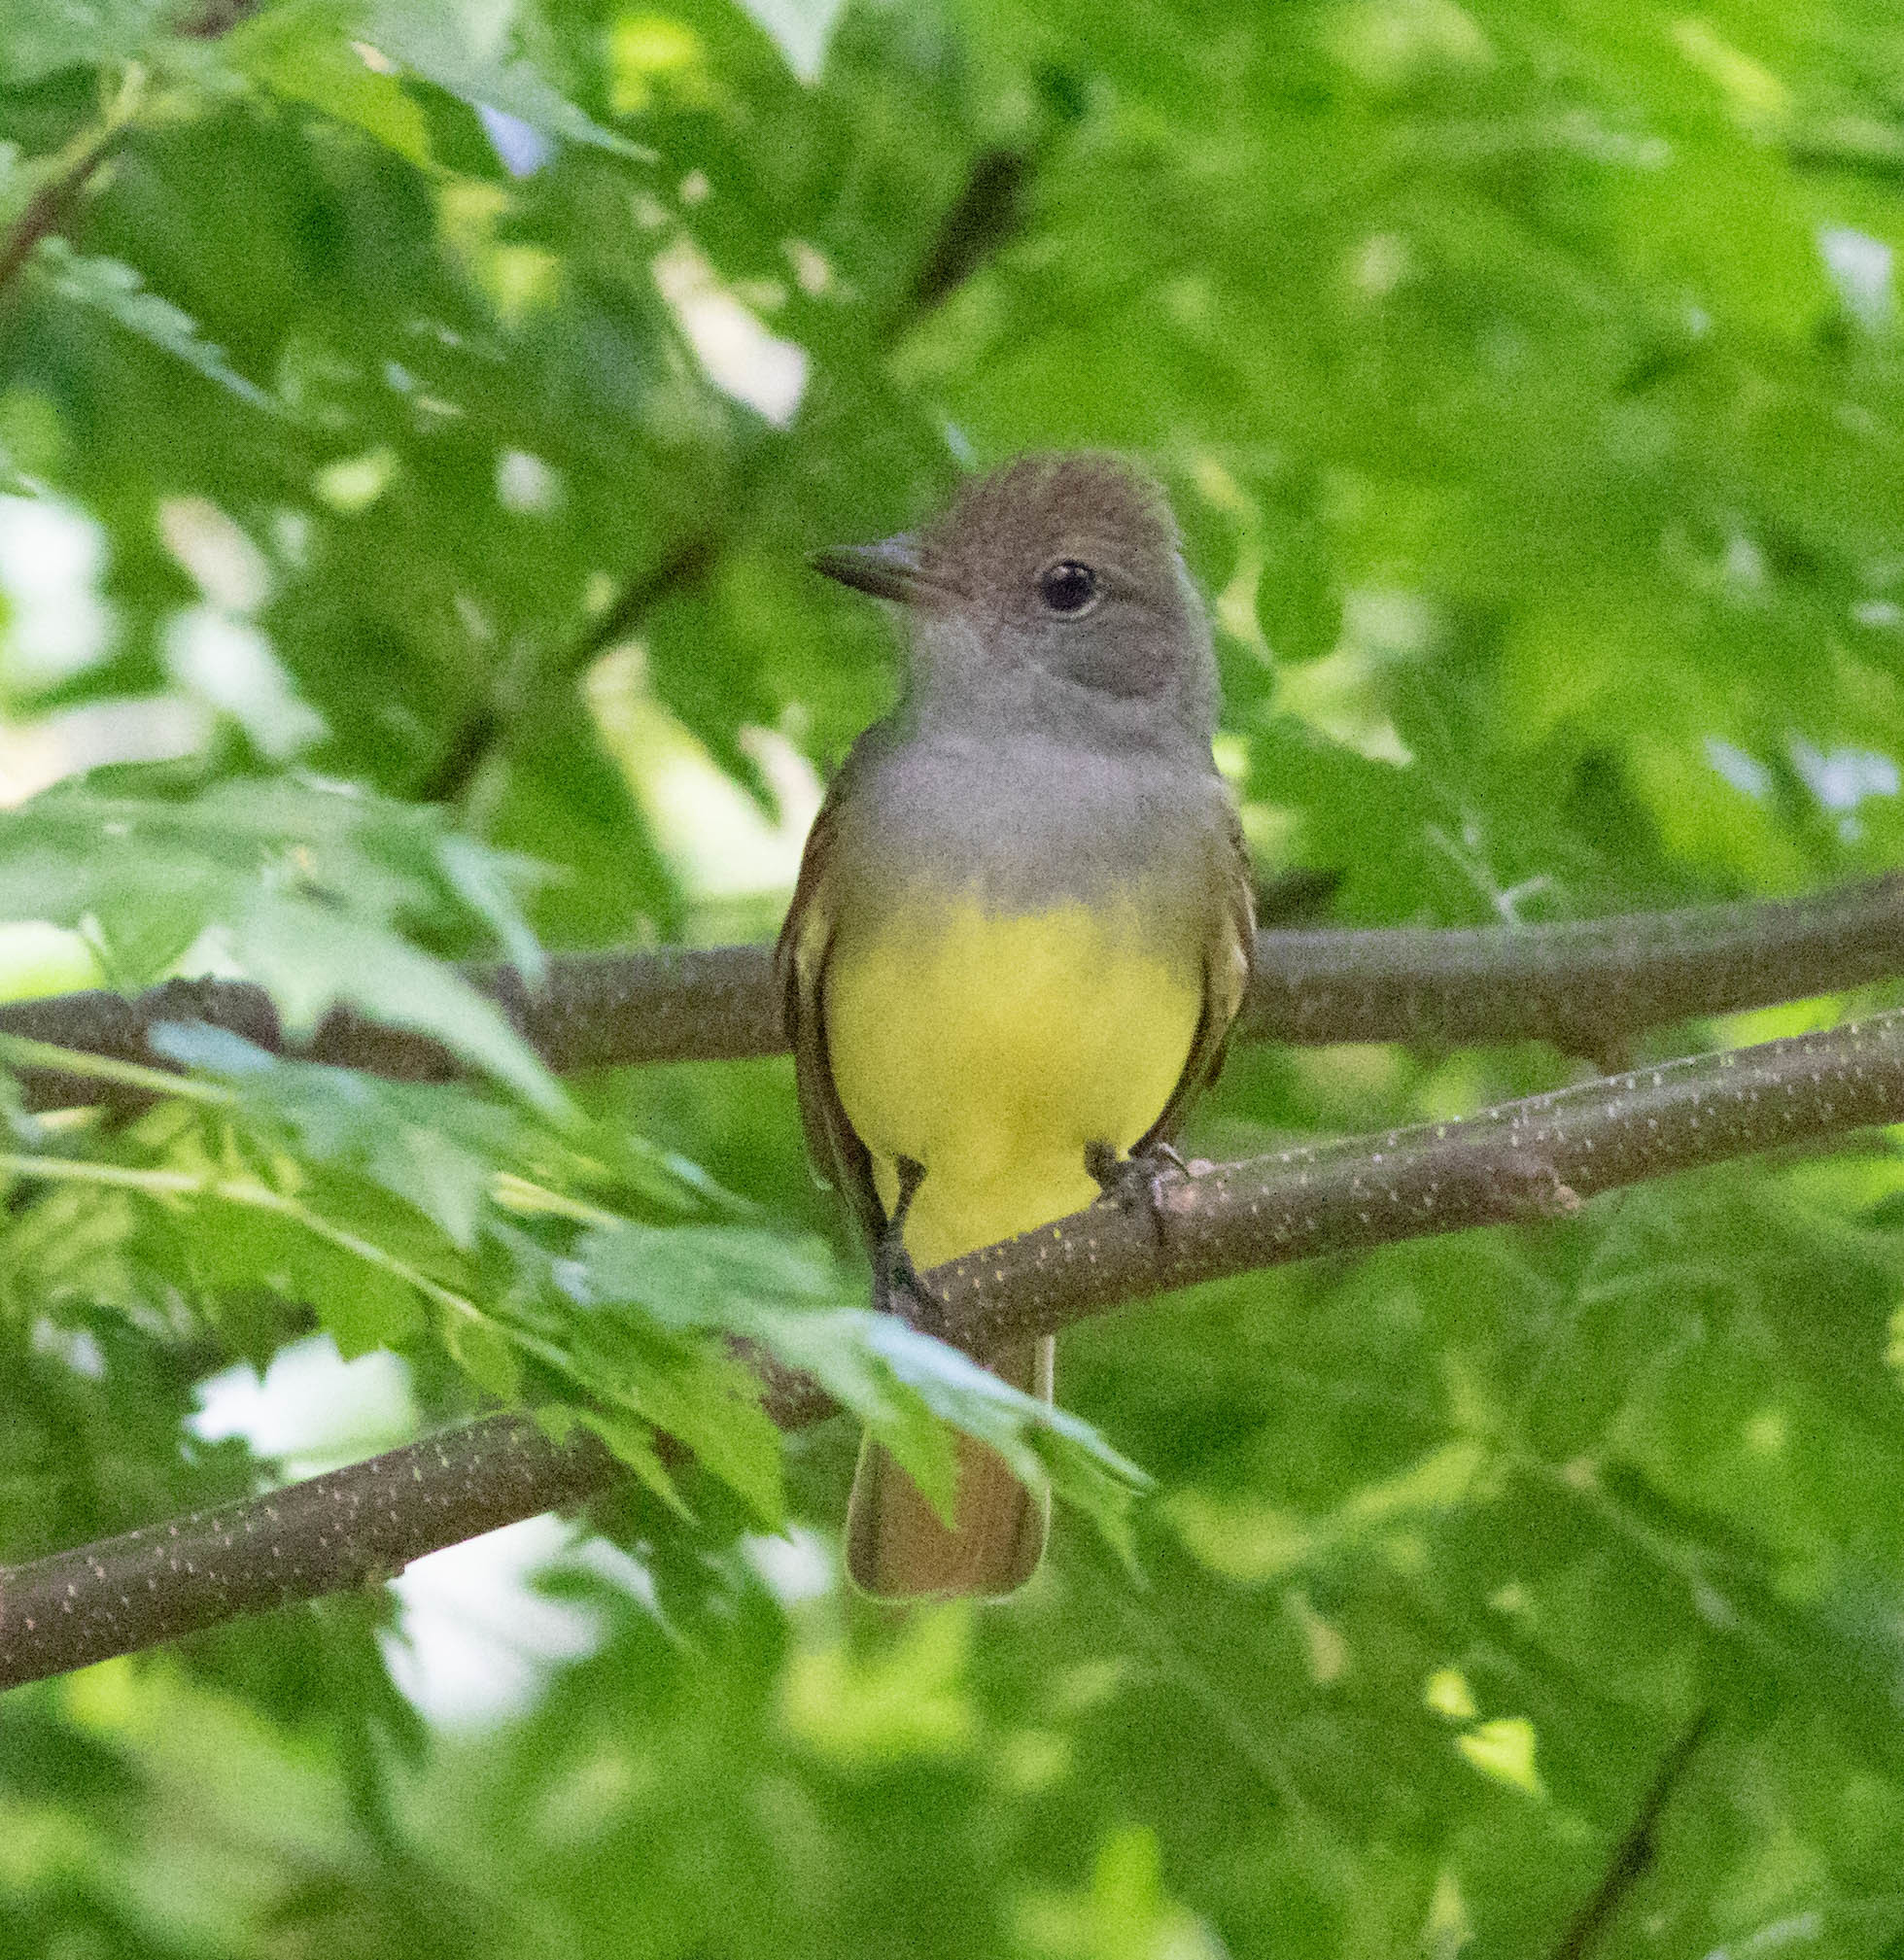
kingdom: Animalia
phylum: Chordata
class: Aves
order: Passeriformes
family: Tyrannidae
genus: Myiarchus
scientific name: Myiarchus crinitus
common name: Great crested flycatcher
